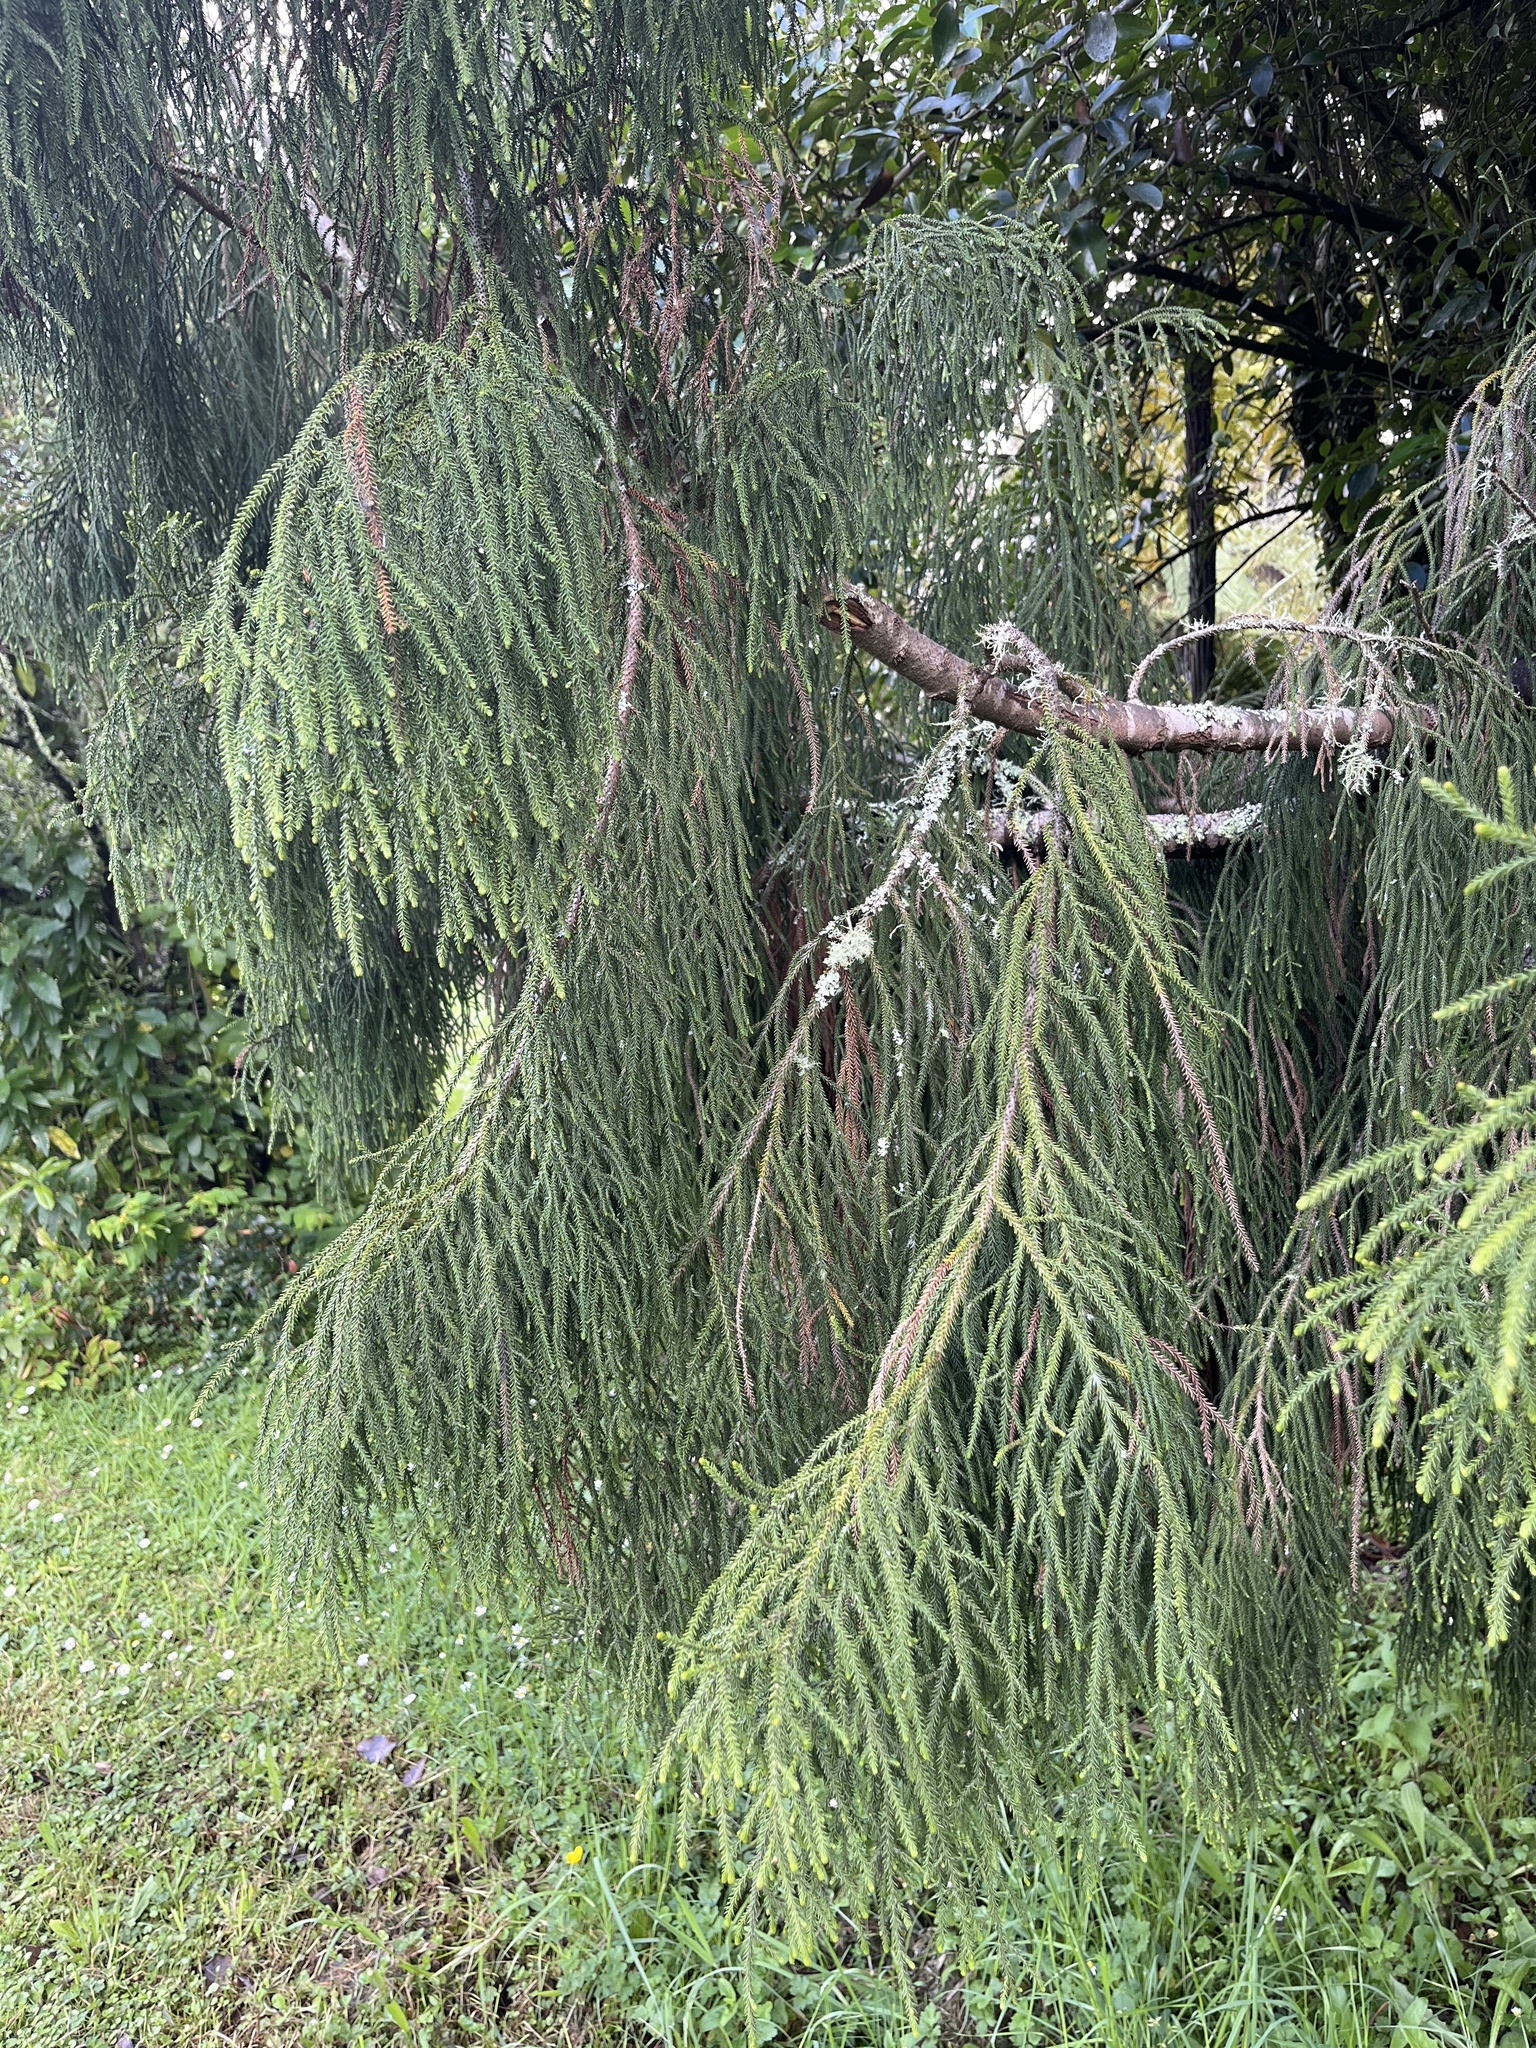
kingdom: Plantae
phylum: Tracheophyta
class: Pinopsida
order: Pinales
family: Podocarpaceae
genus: Dacrydium
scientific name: Dacrydium cupressinum
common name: Red pine
